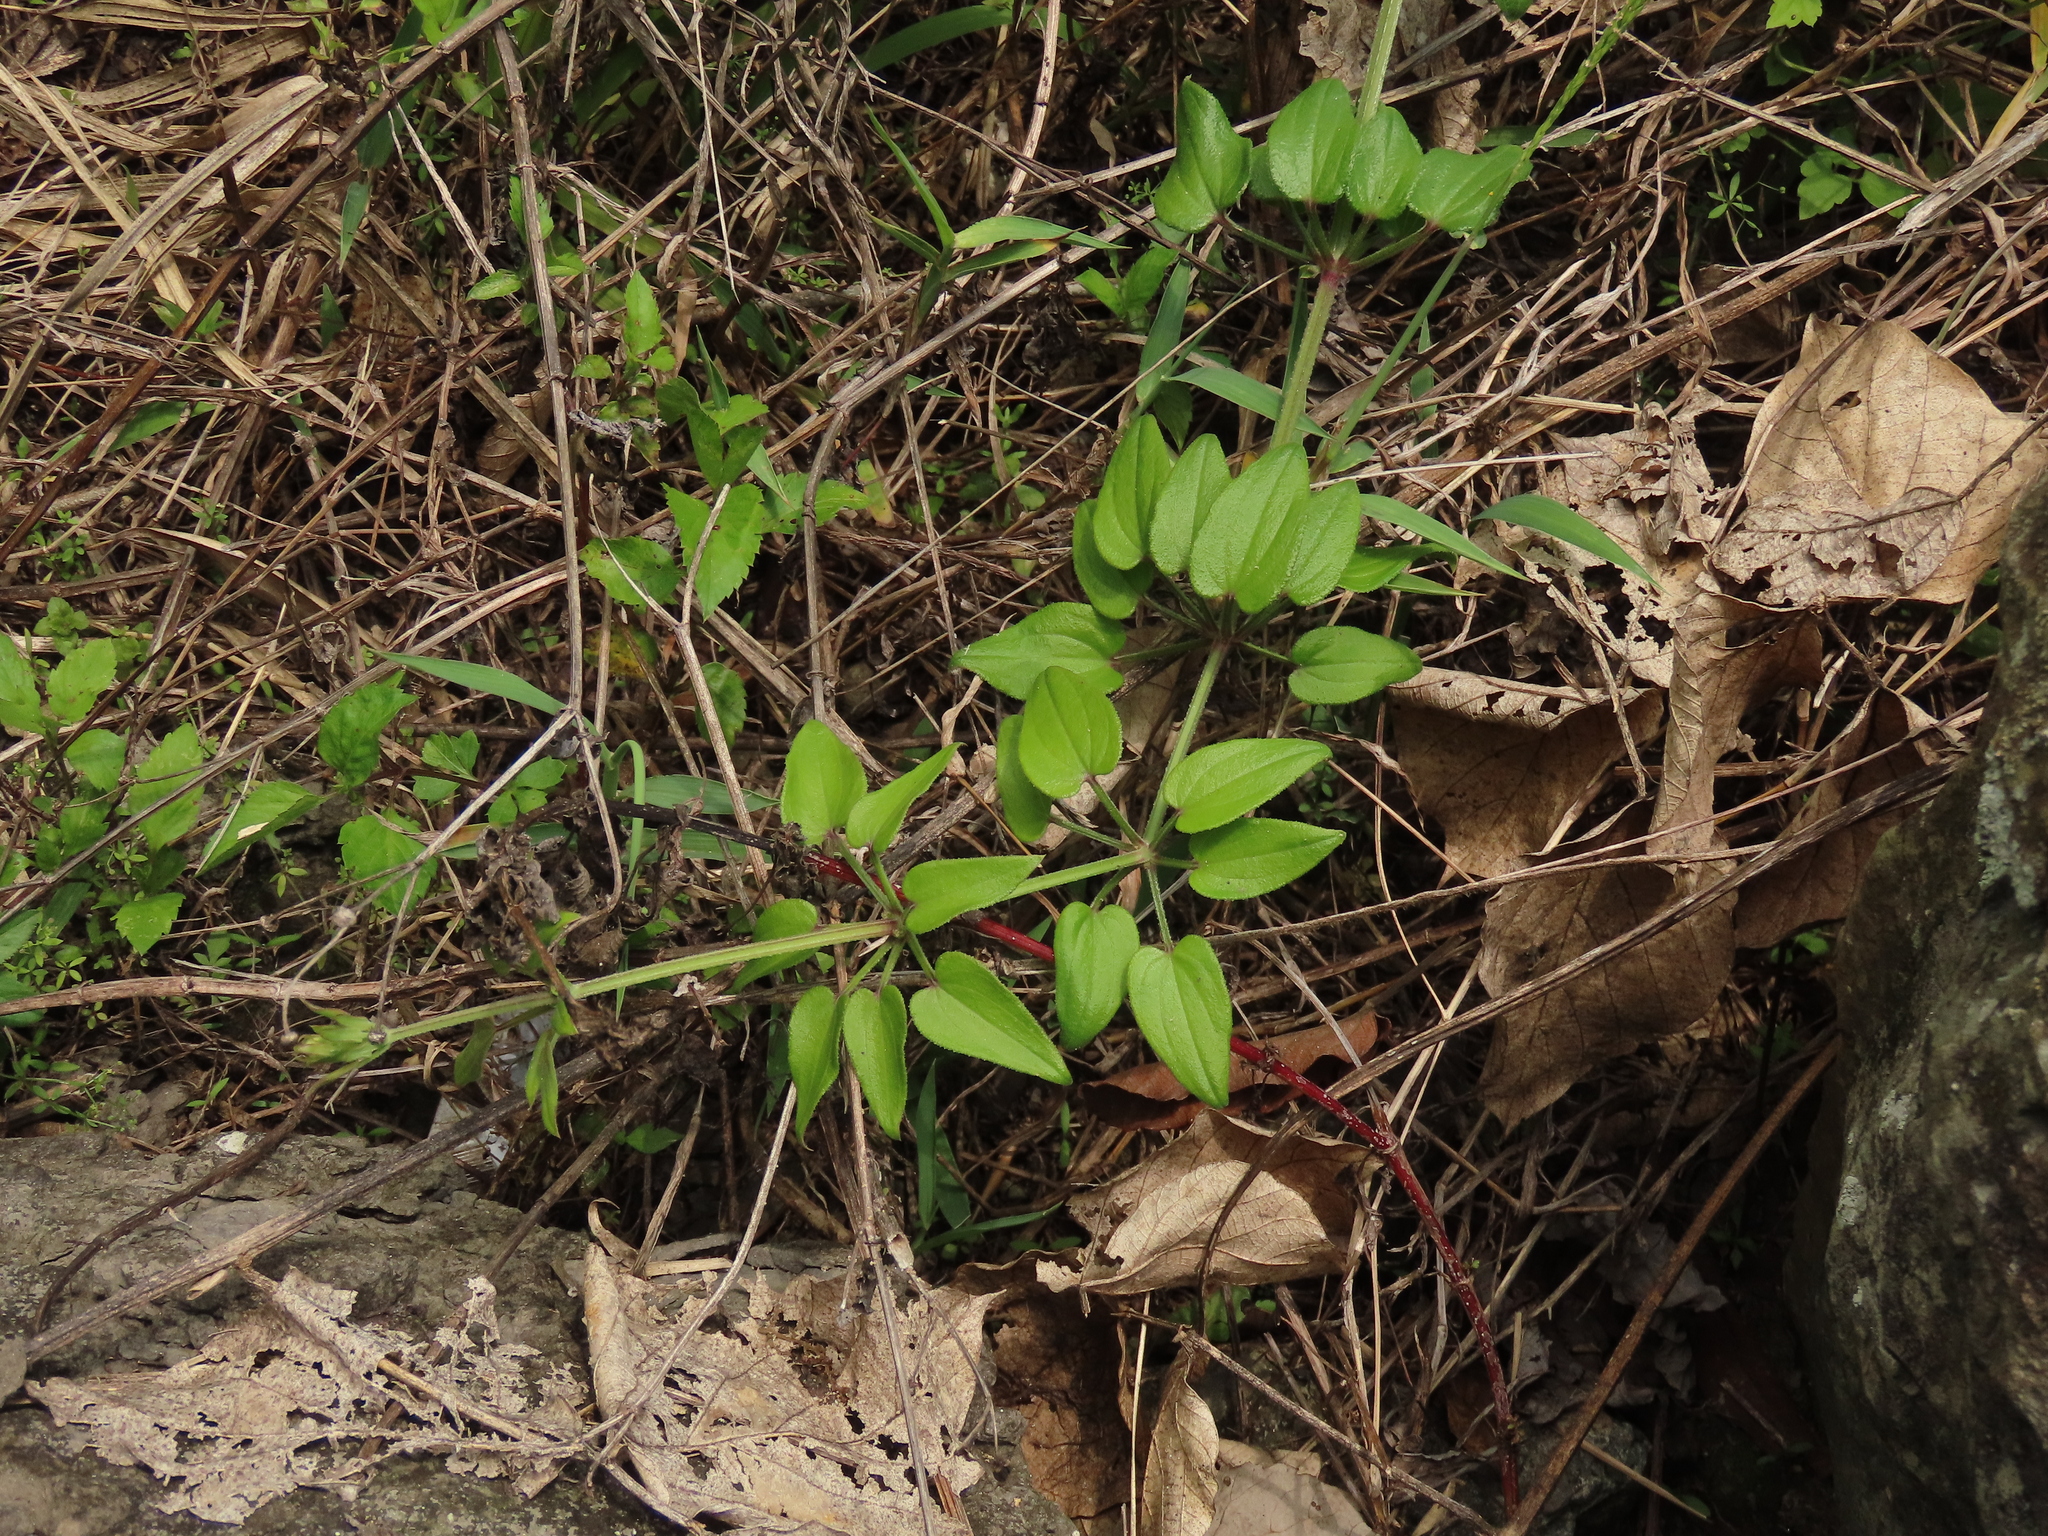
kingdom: Plantae
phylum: Tracheophyta
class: Magnoliopsida
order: Gentianales
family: Rubiaceae
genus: Rubia
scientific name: Rubia argyi
